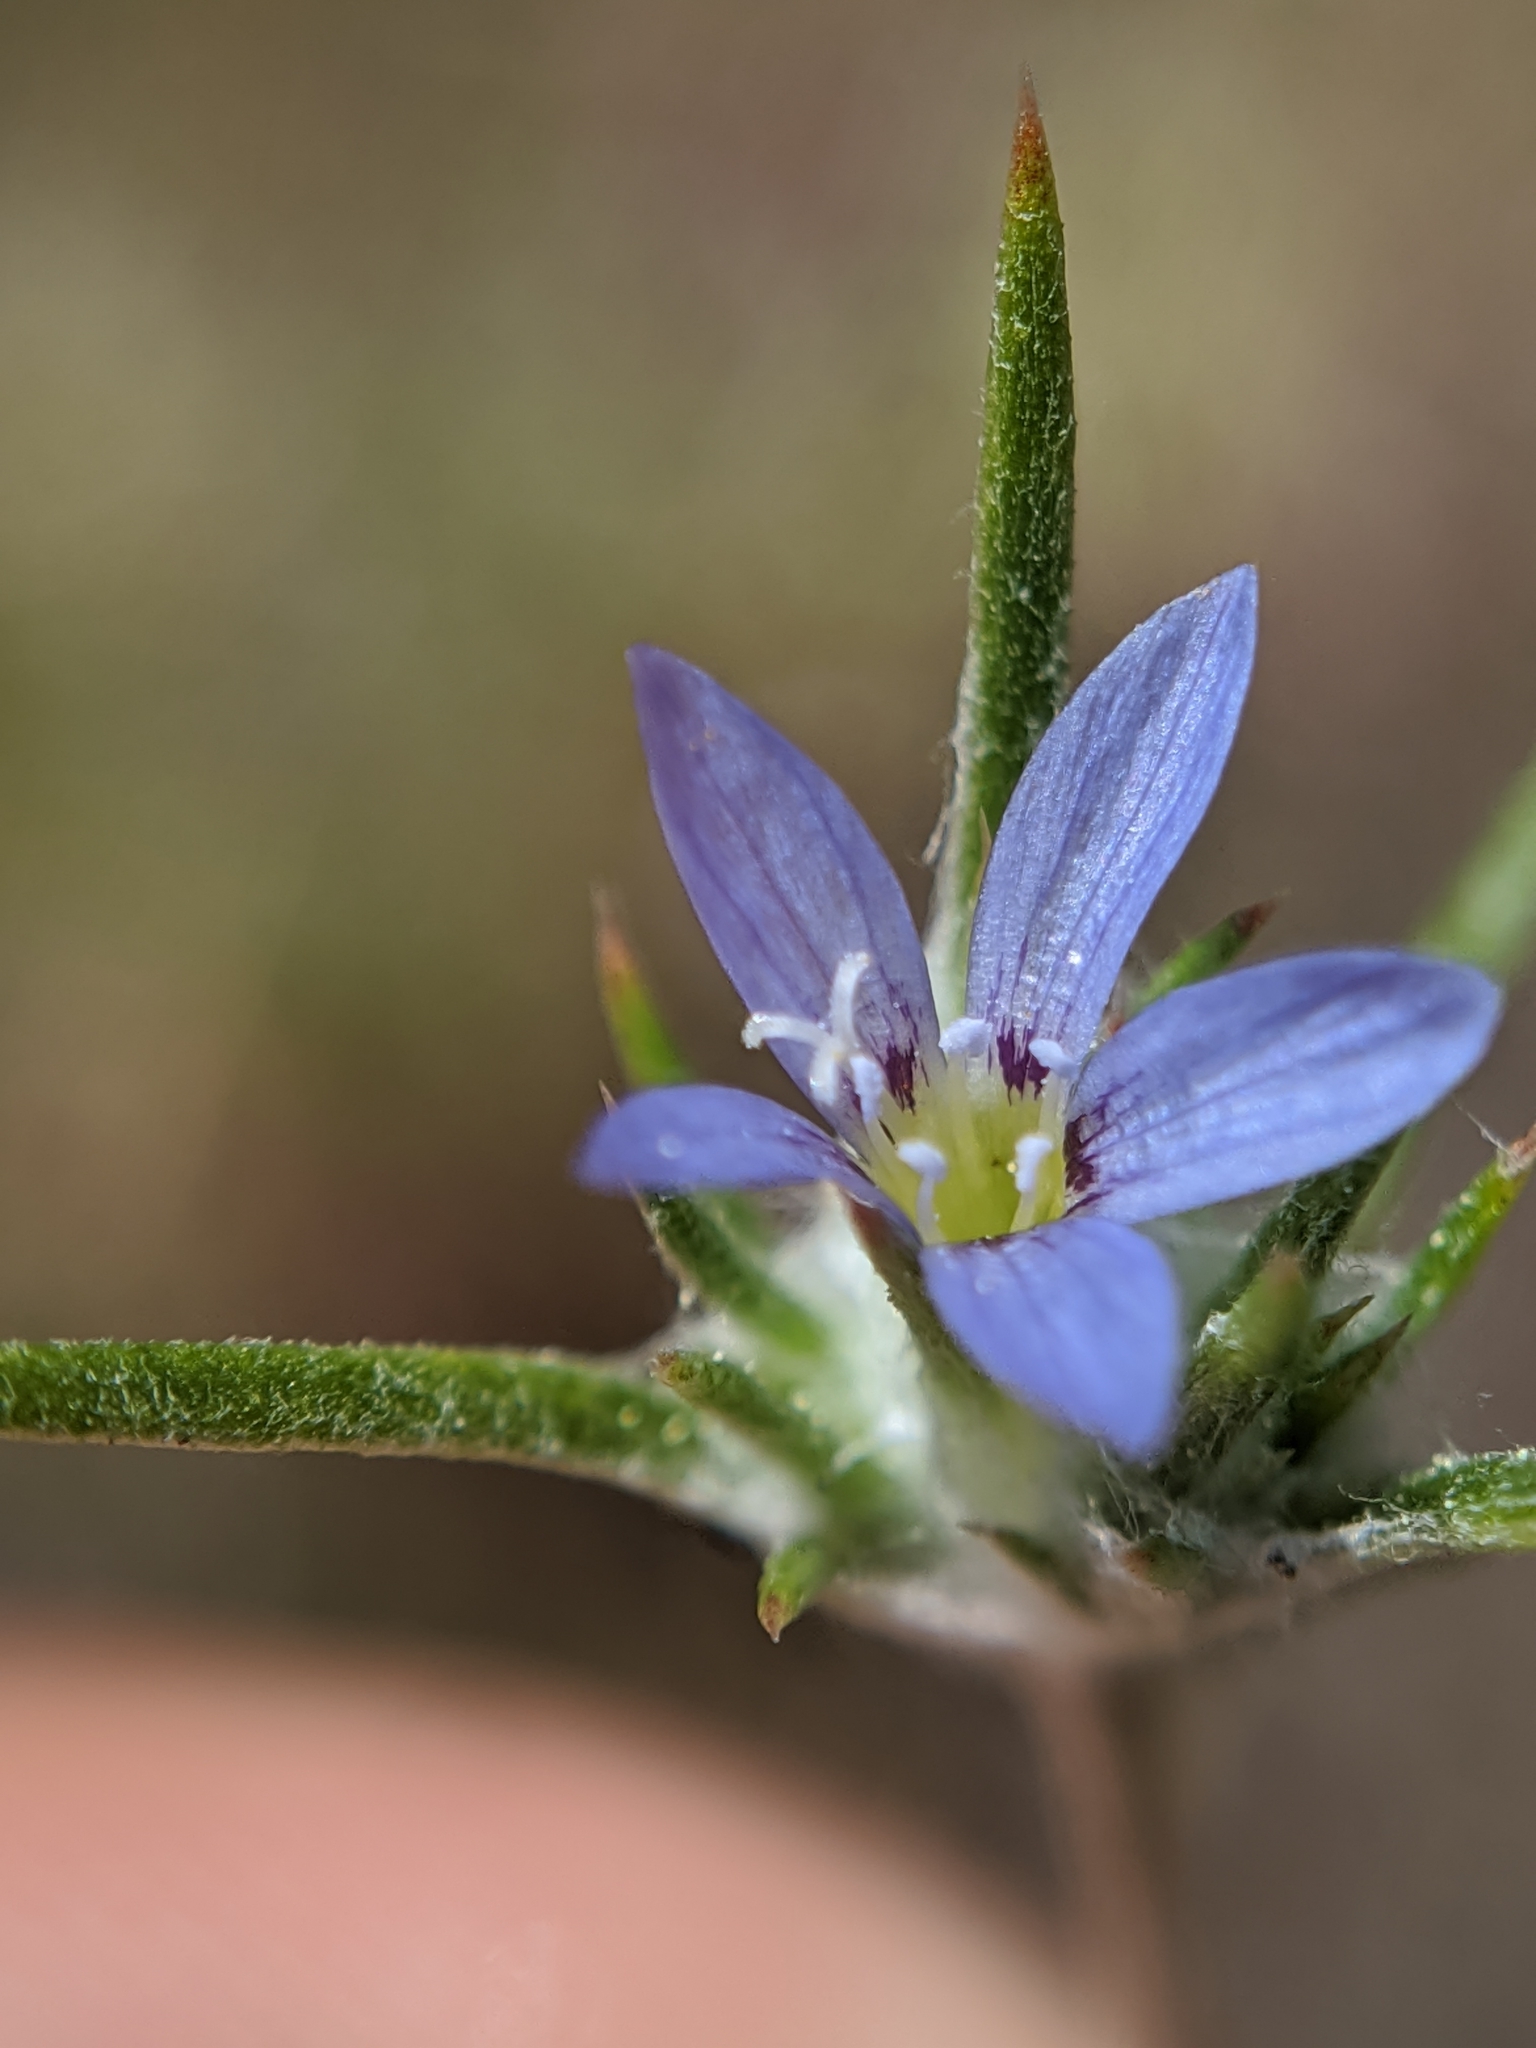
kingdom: Plantae
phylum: Tracheophyta
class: Magnoliopsida
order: Ericales
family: Polemoniaceae
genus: Eriastrum
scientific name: Eriastrum calocyanum
